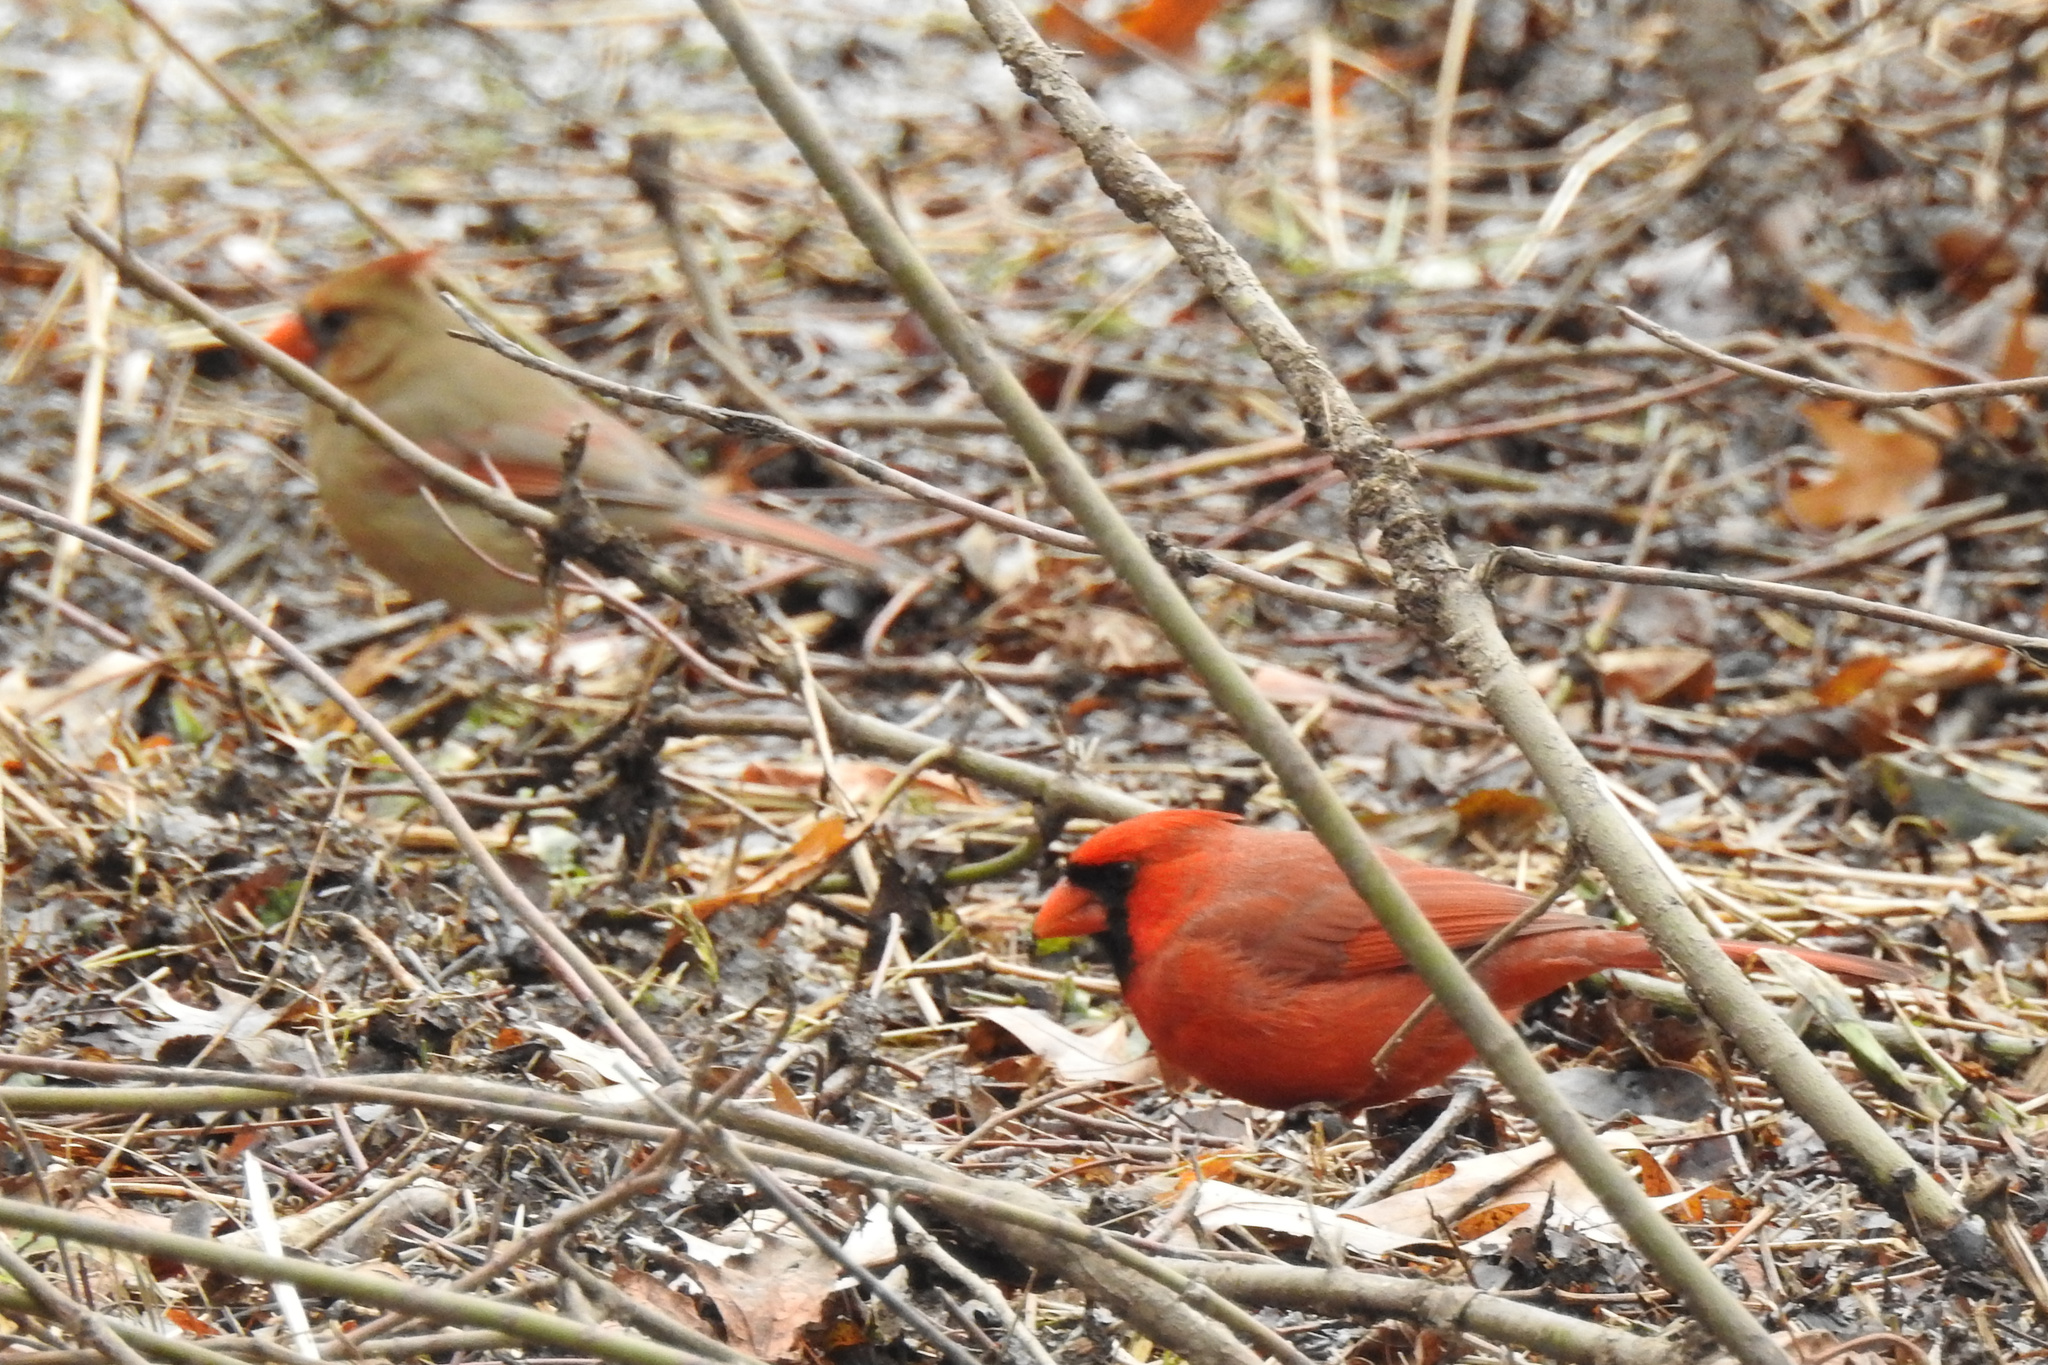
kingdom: Animalia
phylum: Chordata
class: Aves
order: Passeriformes
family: Cardinalidae
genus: Cardinalis
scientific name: Cardinalis cardinalis
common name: Northern cardinal
